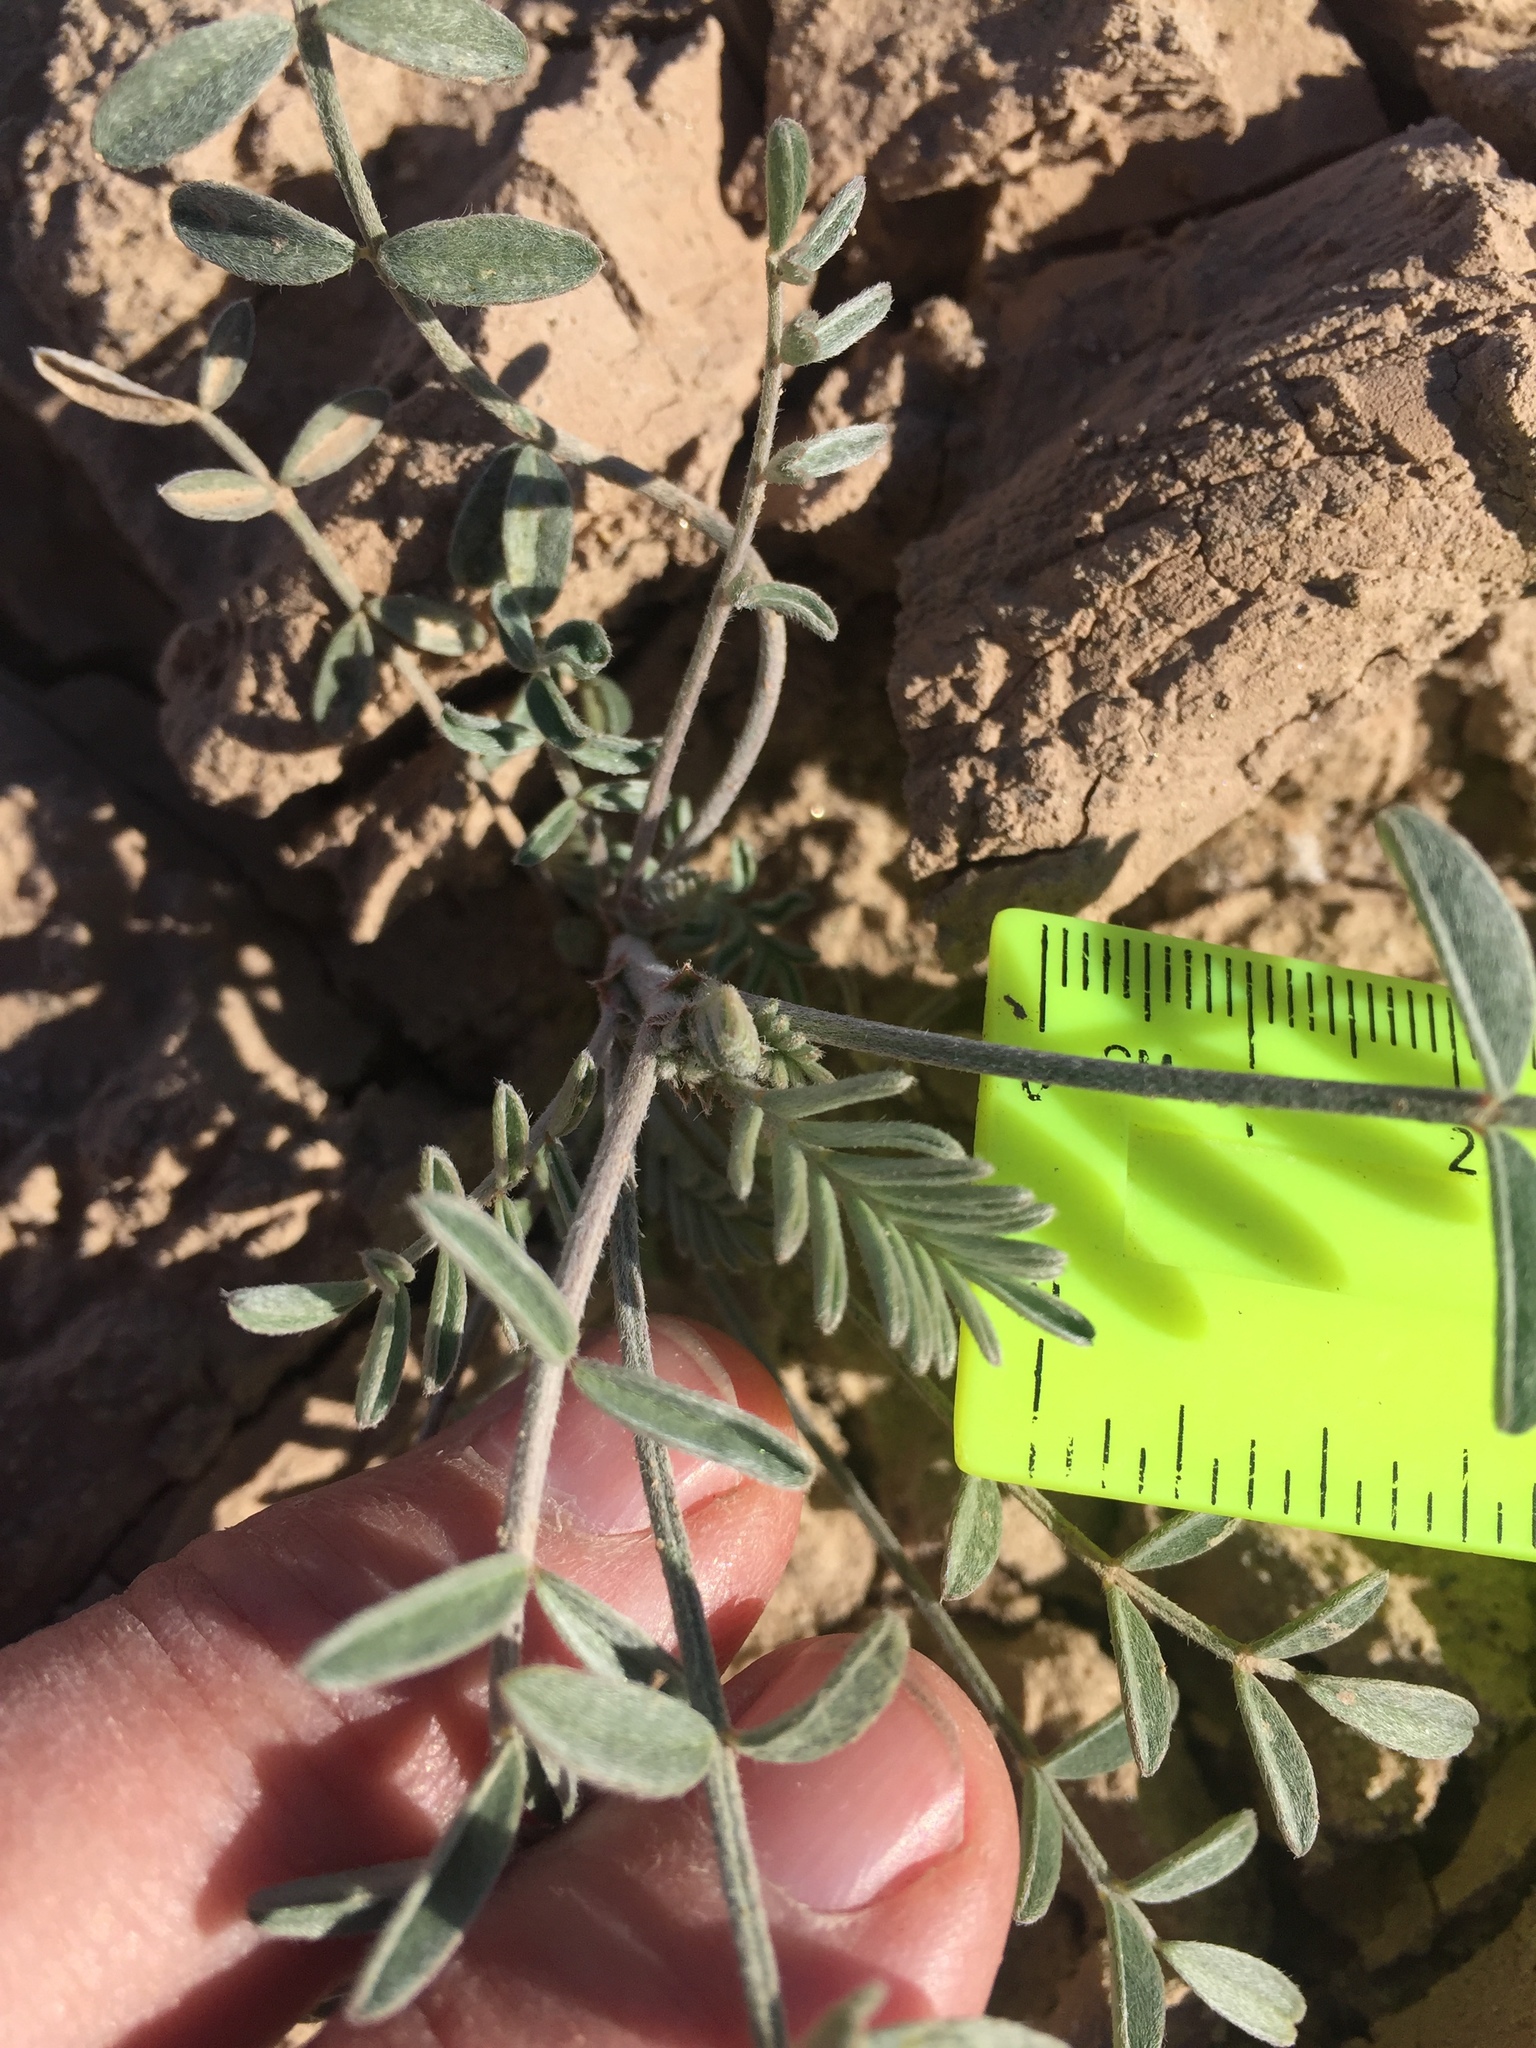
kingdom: Plantae
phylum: Tracheophyta
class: Magnoliopsida
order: Fabales
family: Fabaceae
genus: Astragalus
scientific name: Astragalus aridus
